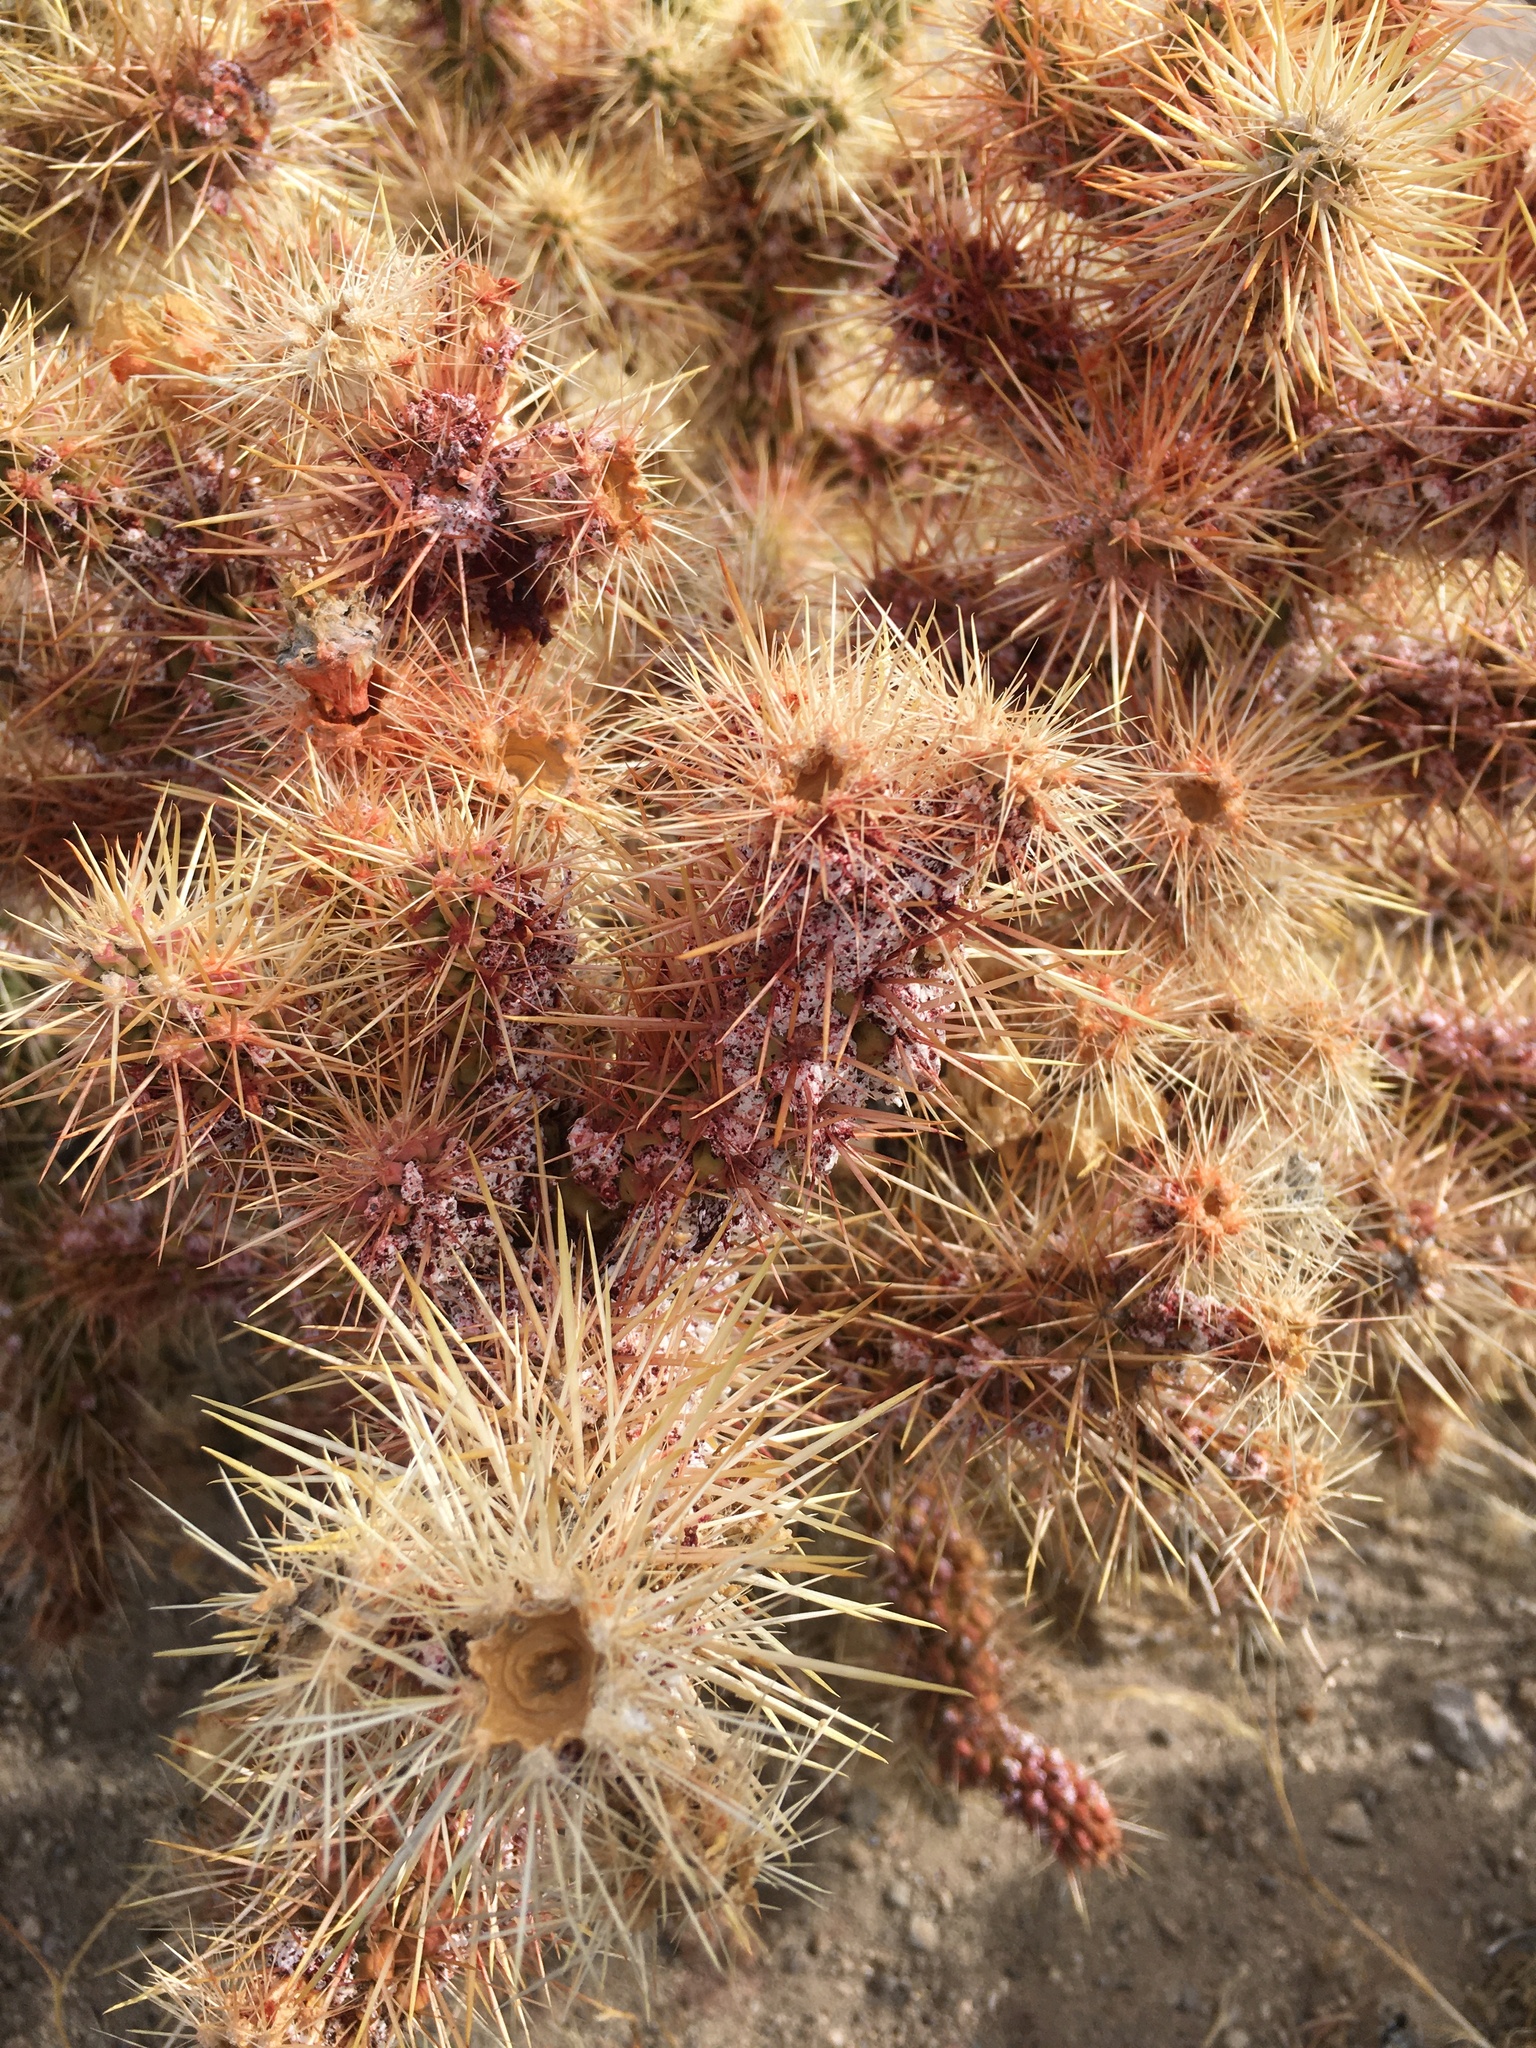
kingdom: Plantae
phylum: Tracheophyta
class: Magnoliopsida
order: Caryophyllales
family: Cactaceae
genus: Cylindropuntia
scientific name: Cylindropuntia echinocarpa
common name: Ground cholla
